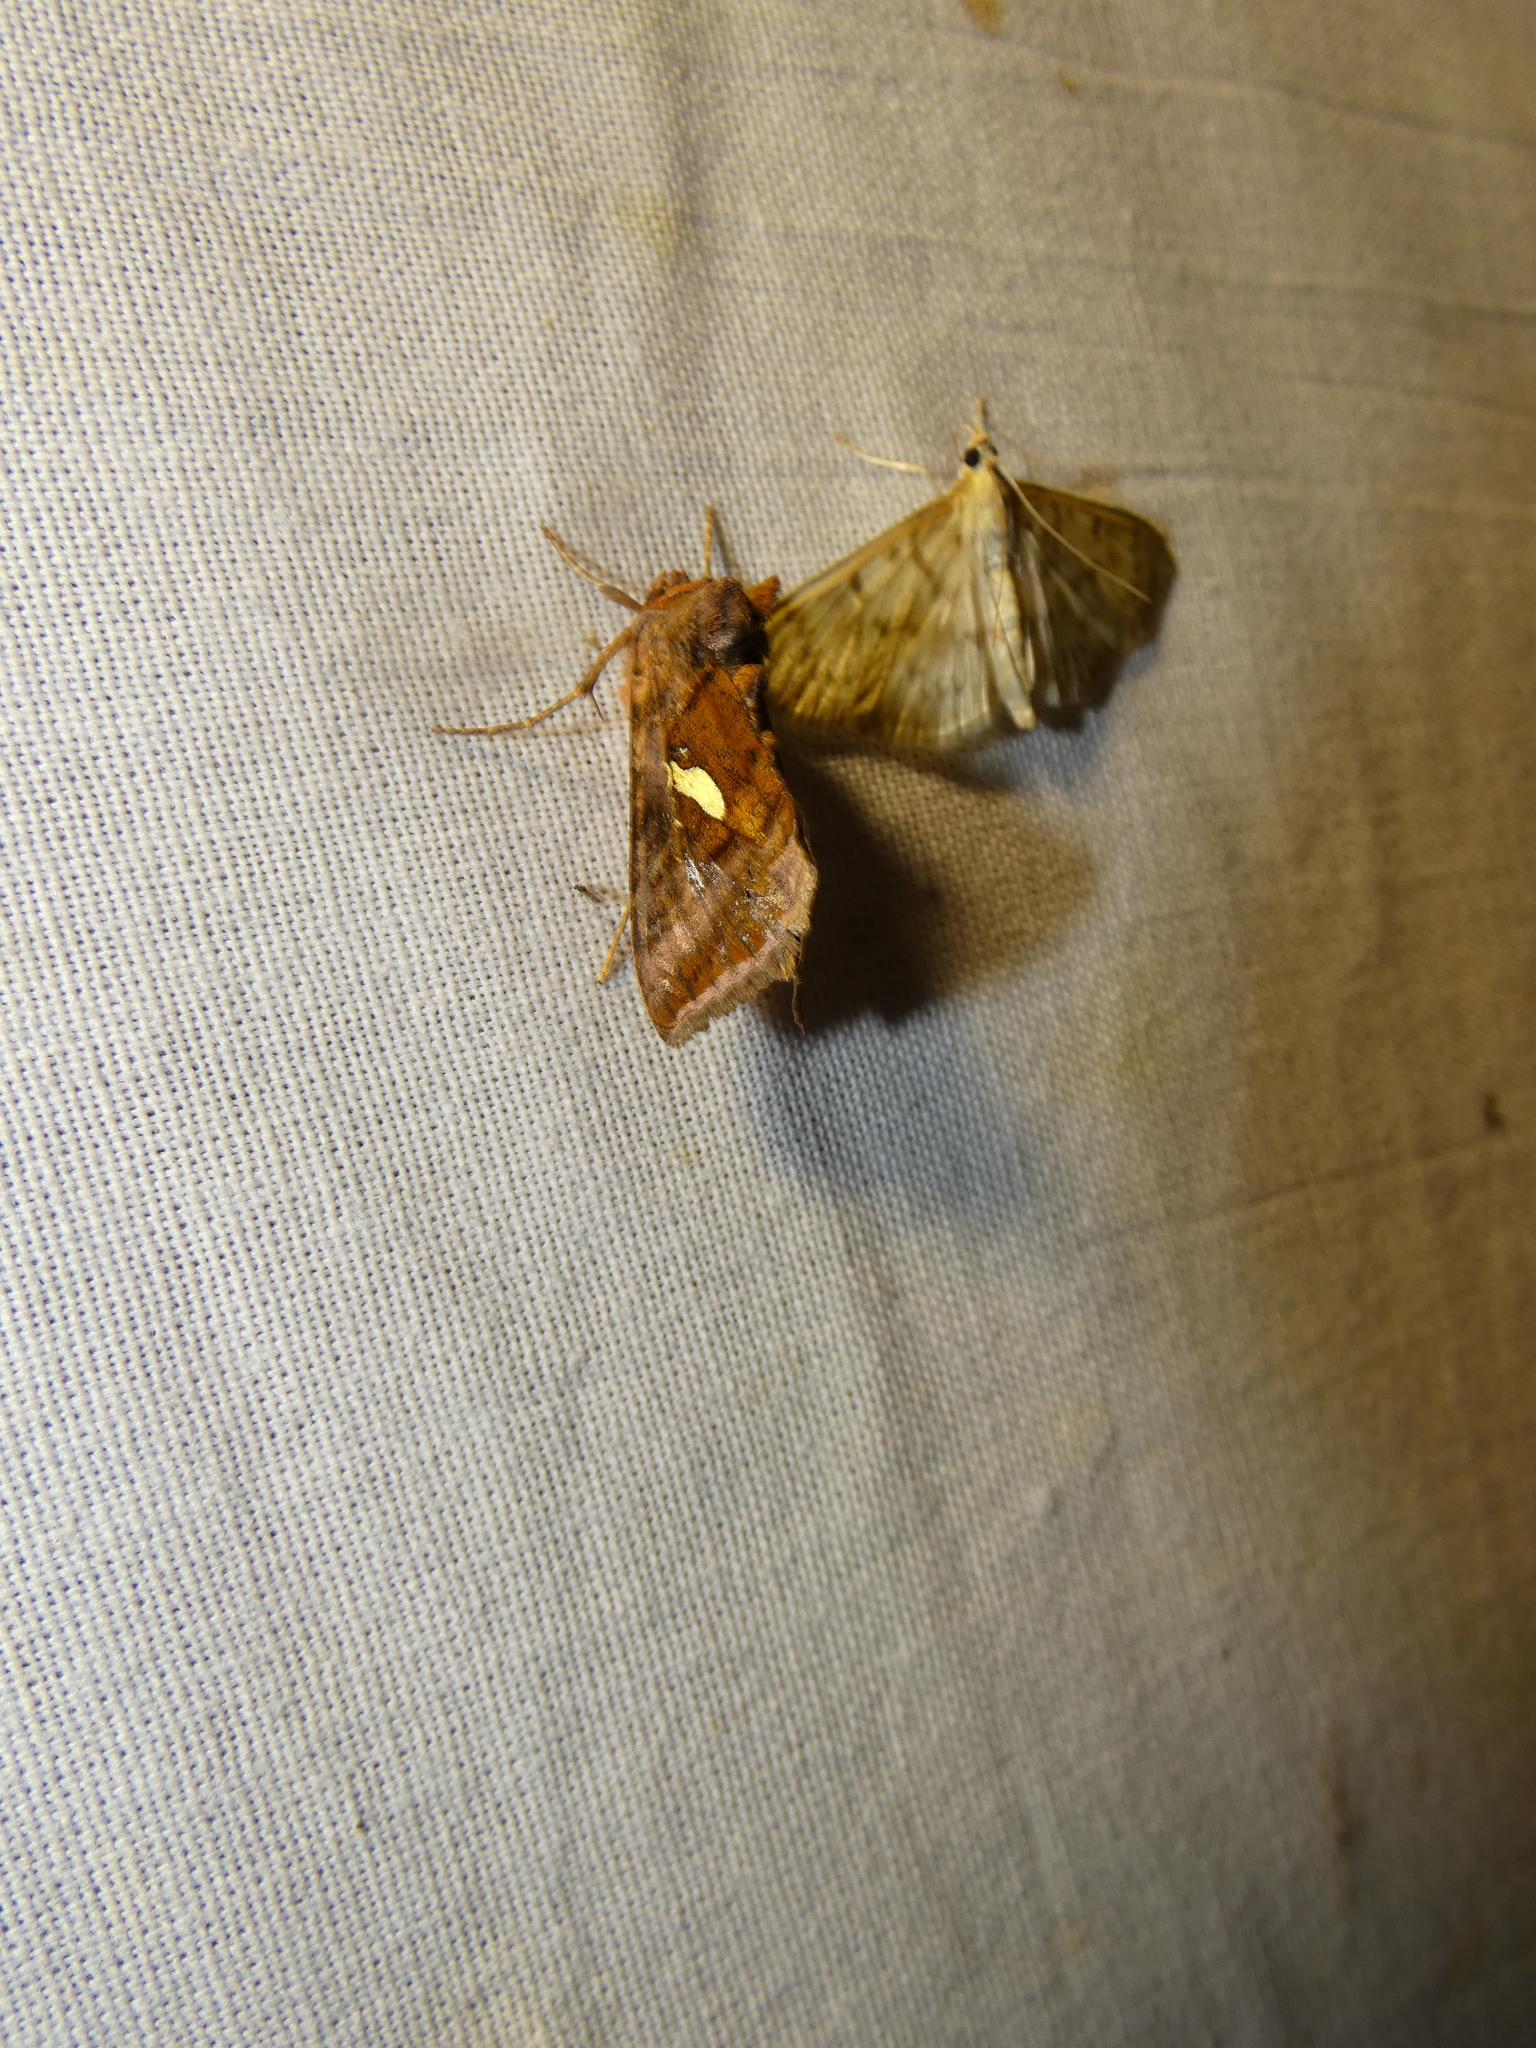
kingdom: Animalia
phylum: Arthropoda
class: Insecta
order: Lepidoptera
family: Noctuidae
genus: Autographa
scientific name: Autographa excelsa
